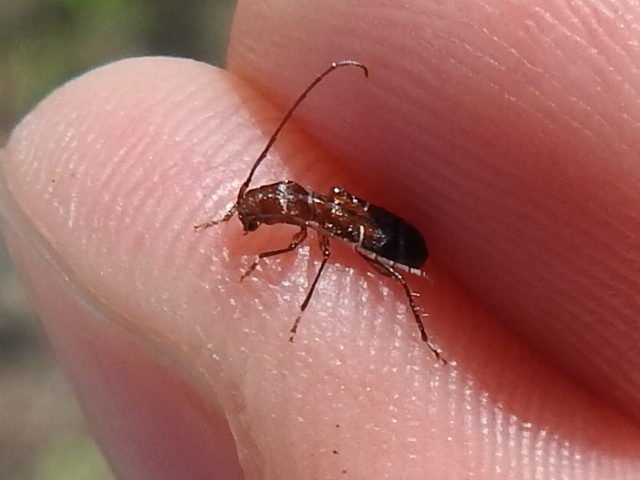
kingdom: Animalia
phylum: Arthropoda
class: Insecta
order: Coleoptera
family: Cerambycidae
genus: Euderces
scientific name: Euderces pini
